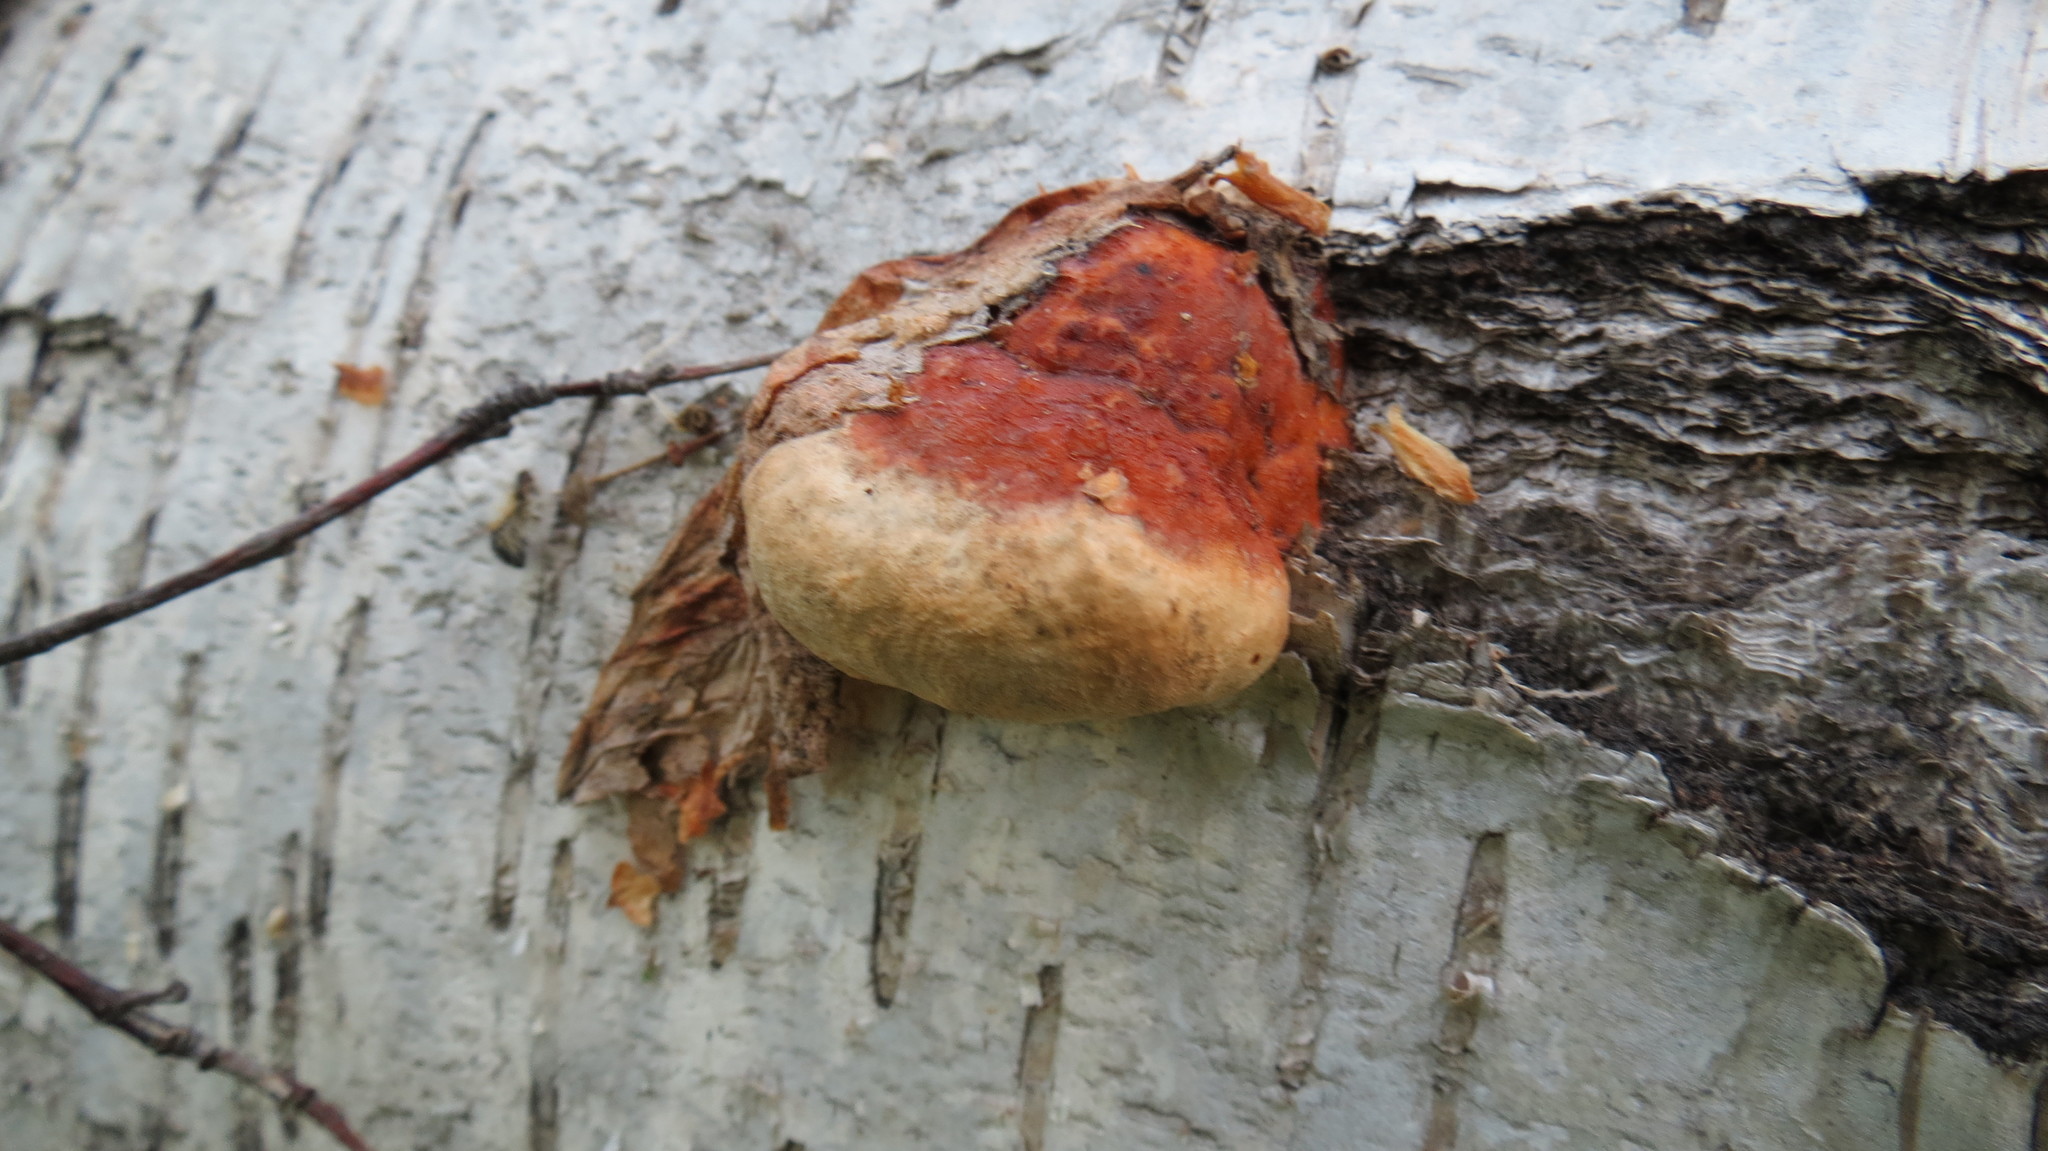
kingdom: Fungi
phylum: Basidiomycota
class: Agaricomycetes
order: Polyporales
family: Fomitopsidaceae
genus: Fomitopsis
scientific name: Fomitopsis pinicola
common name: Red-belted bracket
